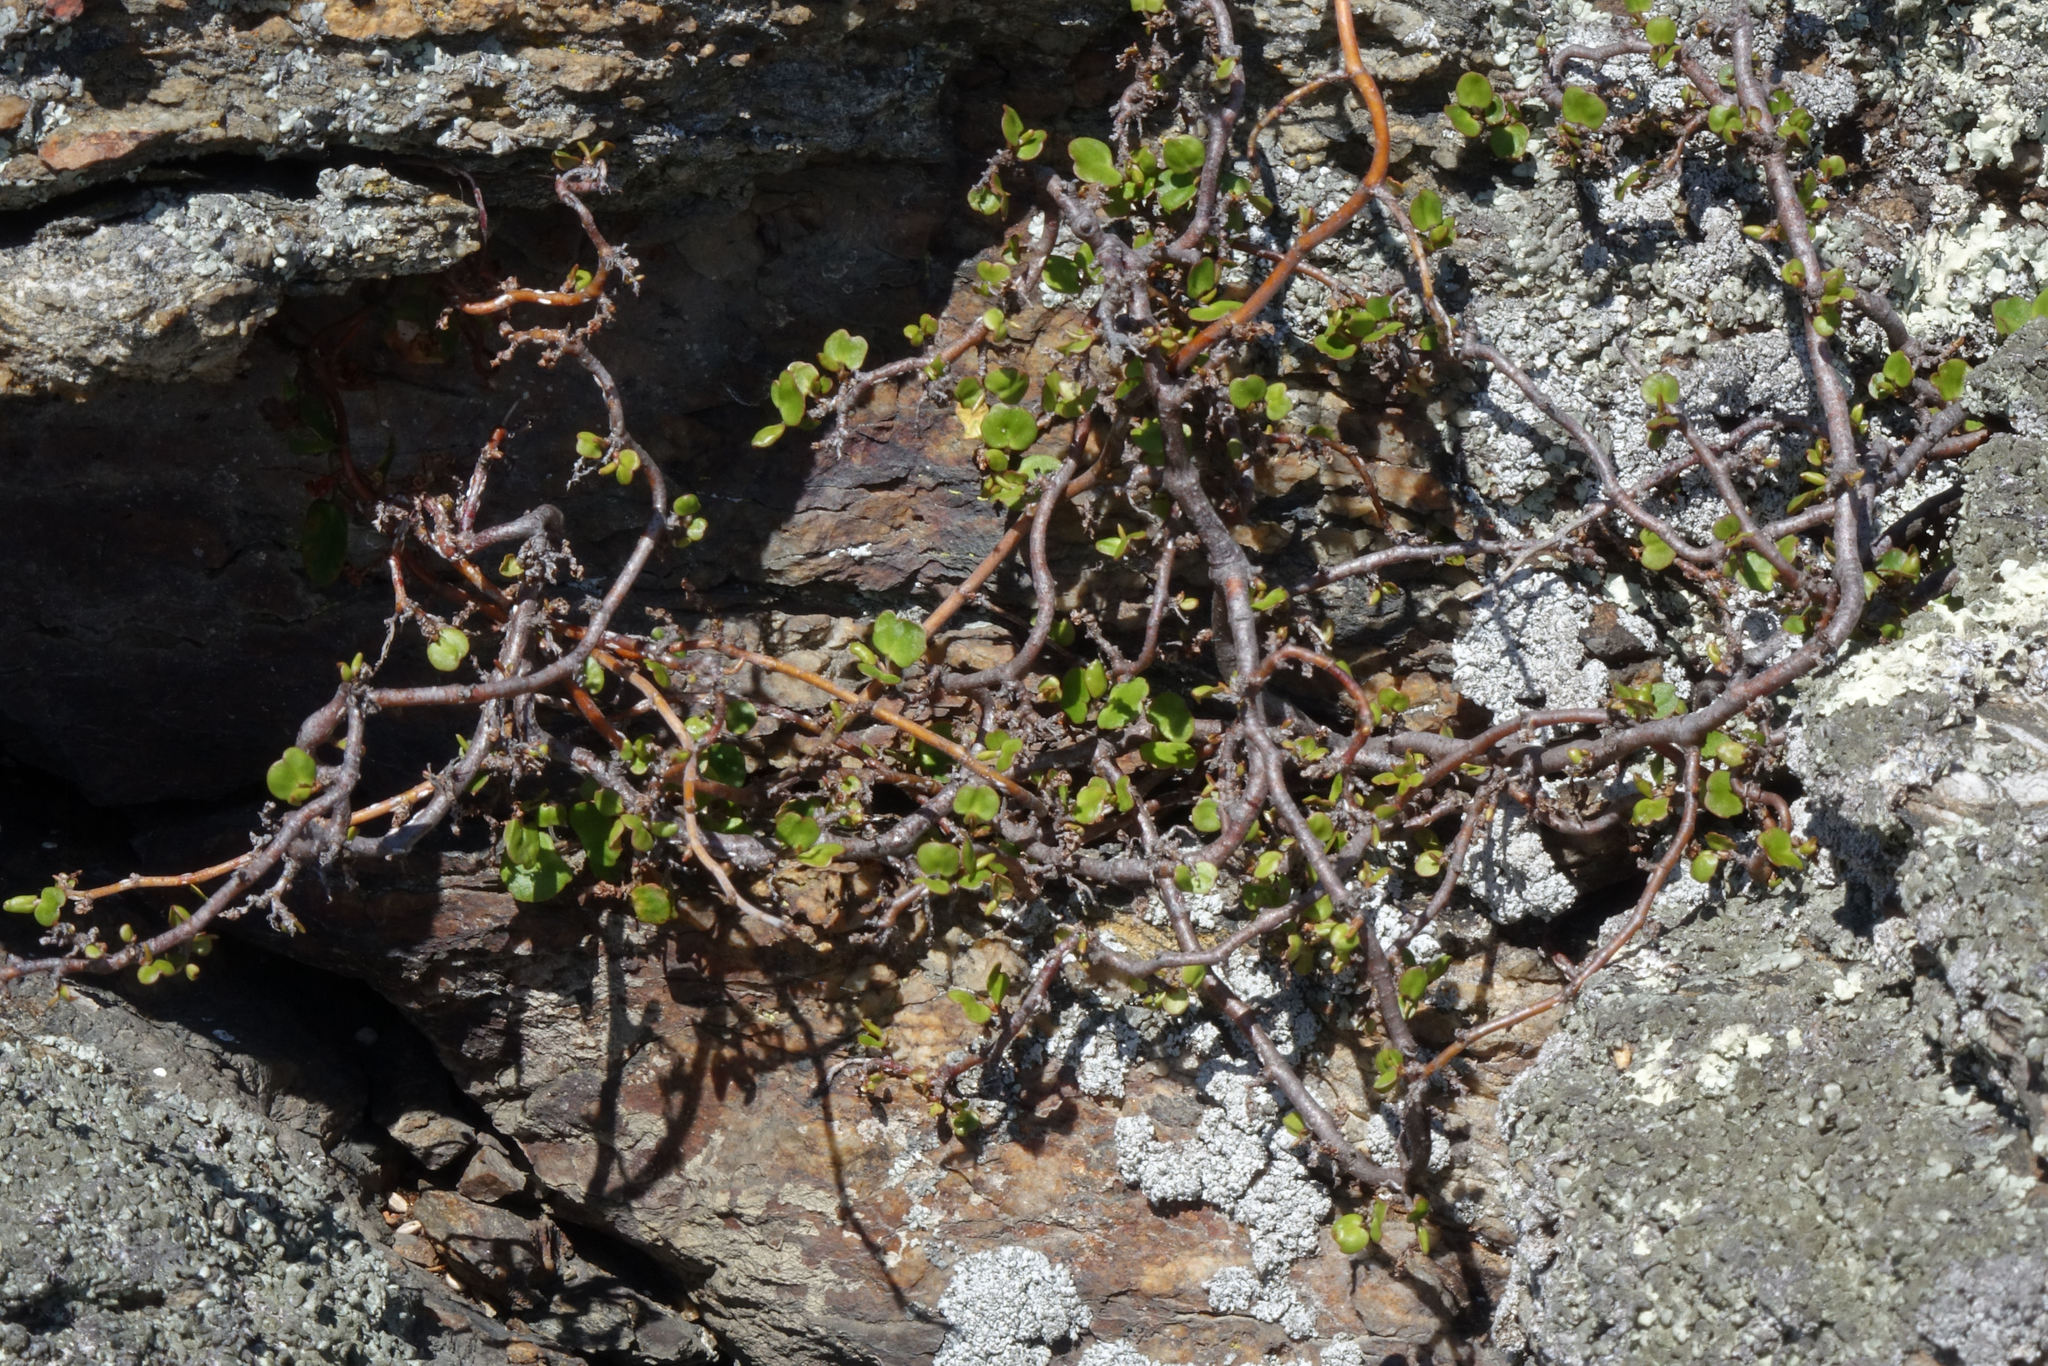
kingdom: Plantae
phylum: Tracheophyta
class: Magnoliopsida
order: Caryophyllales
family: Polygonaceae
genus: Muehlenbeckia
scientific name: Muehlenbeckia complexa
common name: Wireplant
